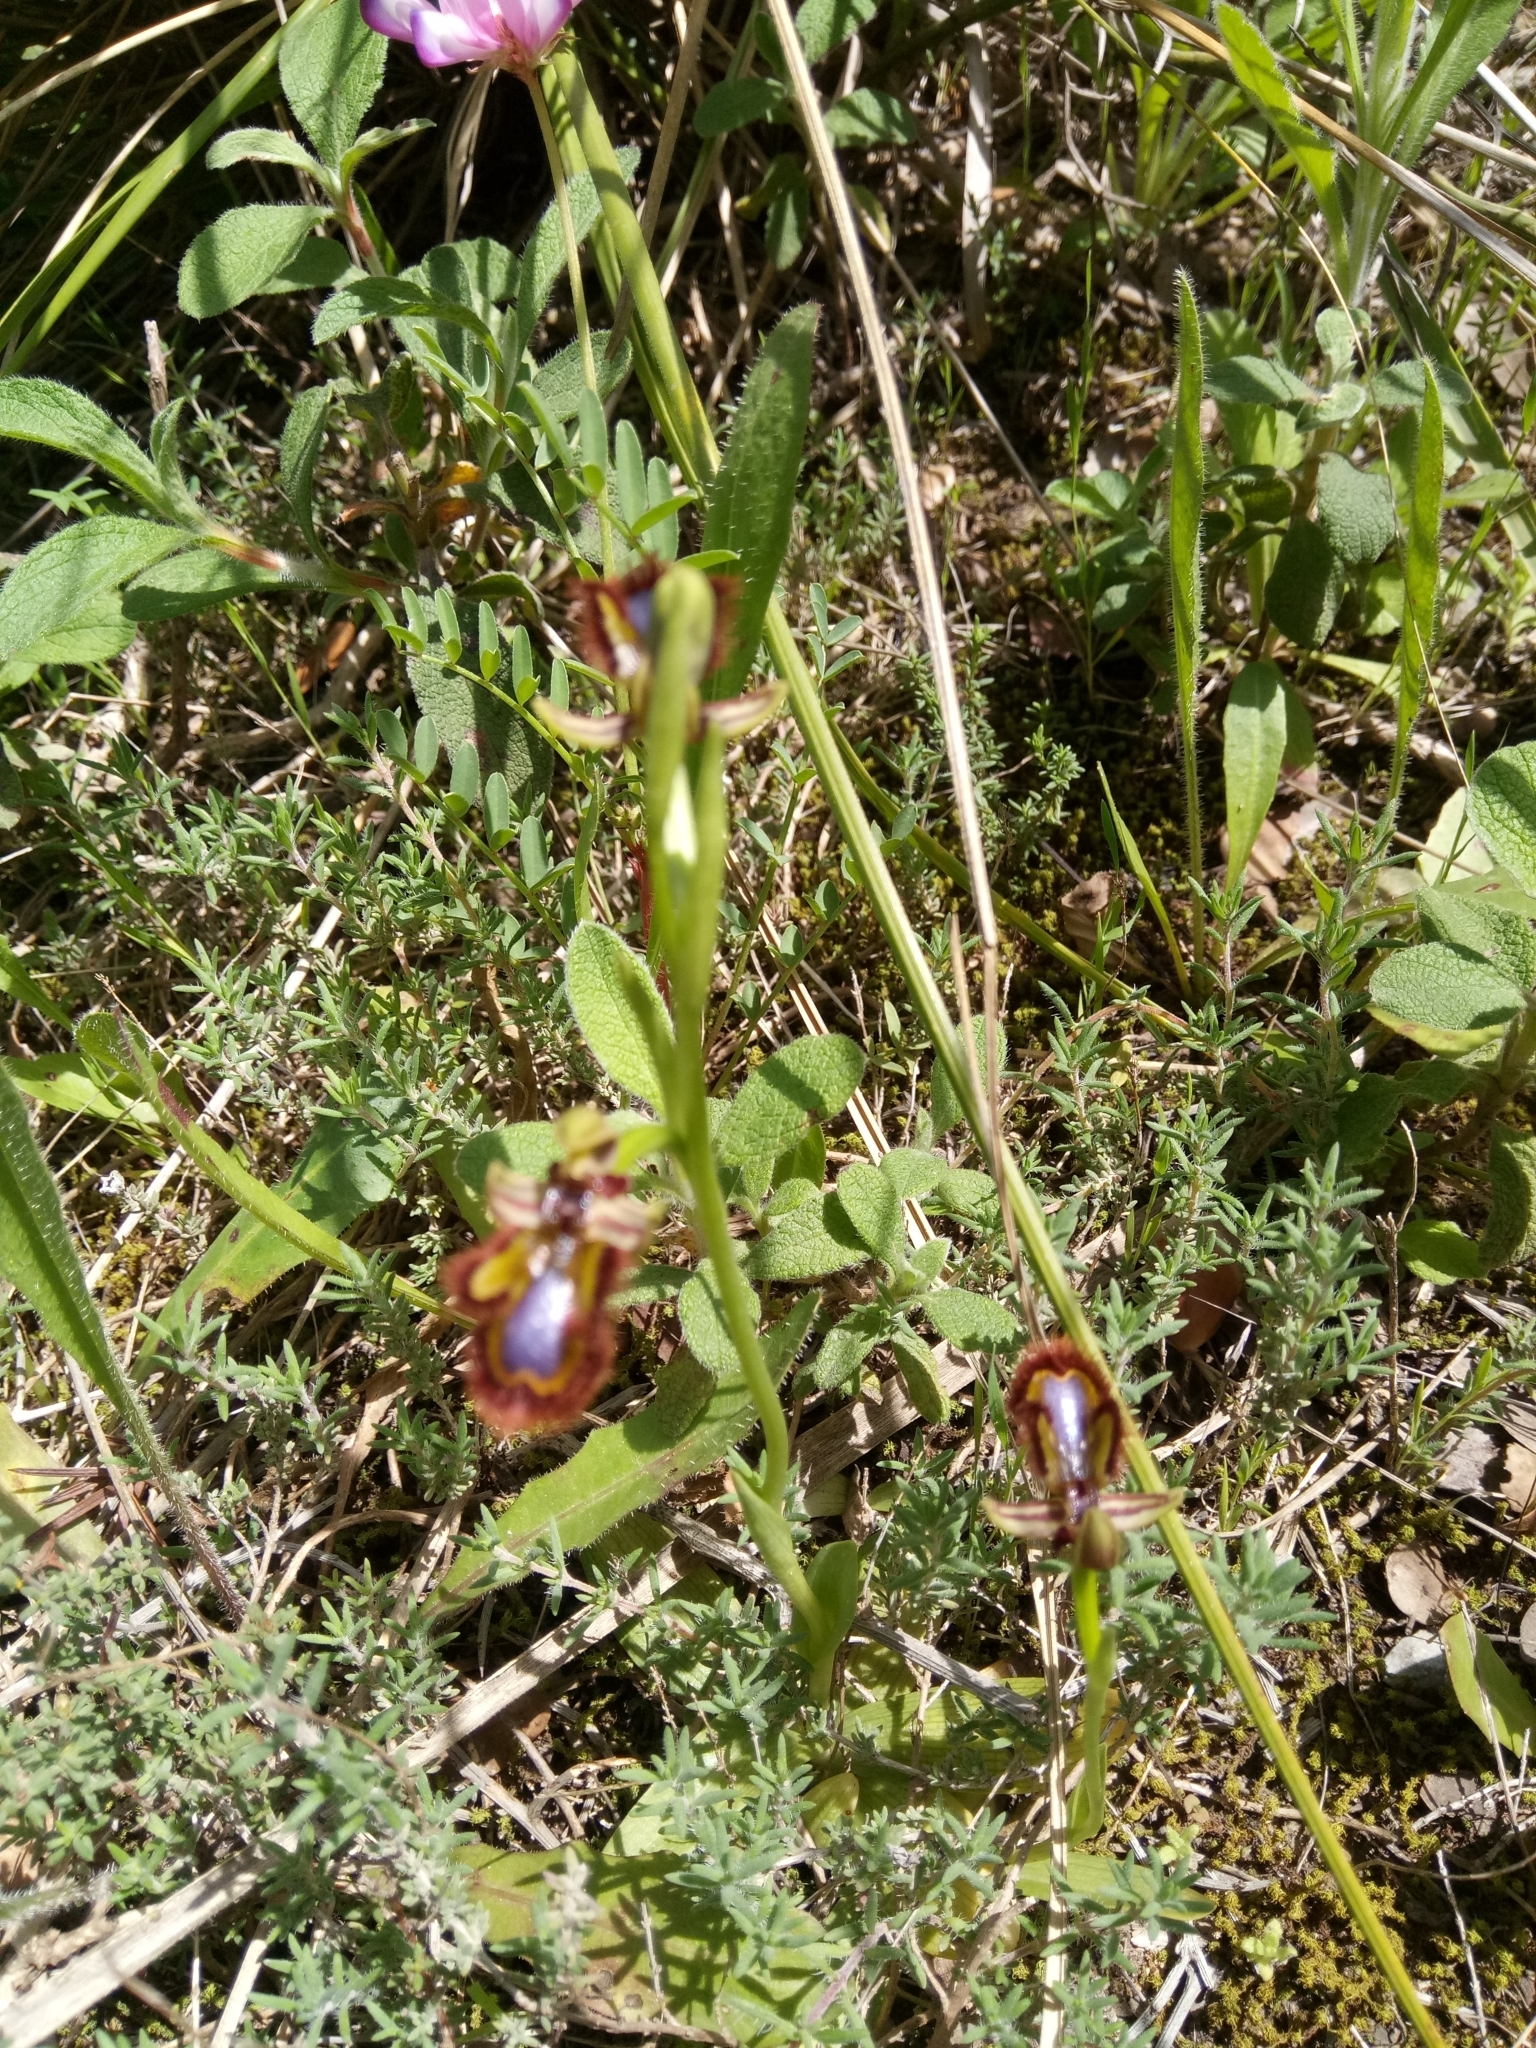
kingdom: Plantae
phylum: Tracheophyta
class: Liliopsida
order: Asparagales
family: Orchidaceae
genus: Ophrys
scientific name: Ophrys speculum
